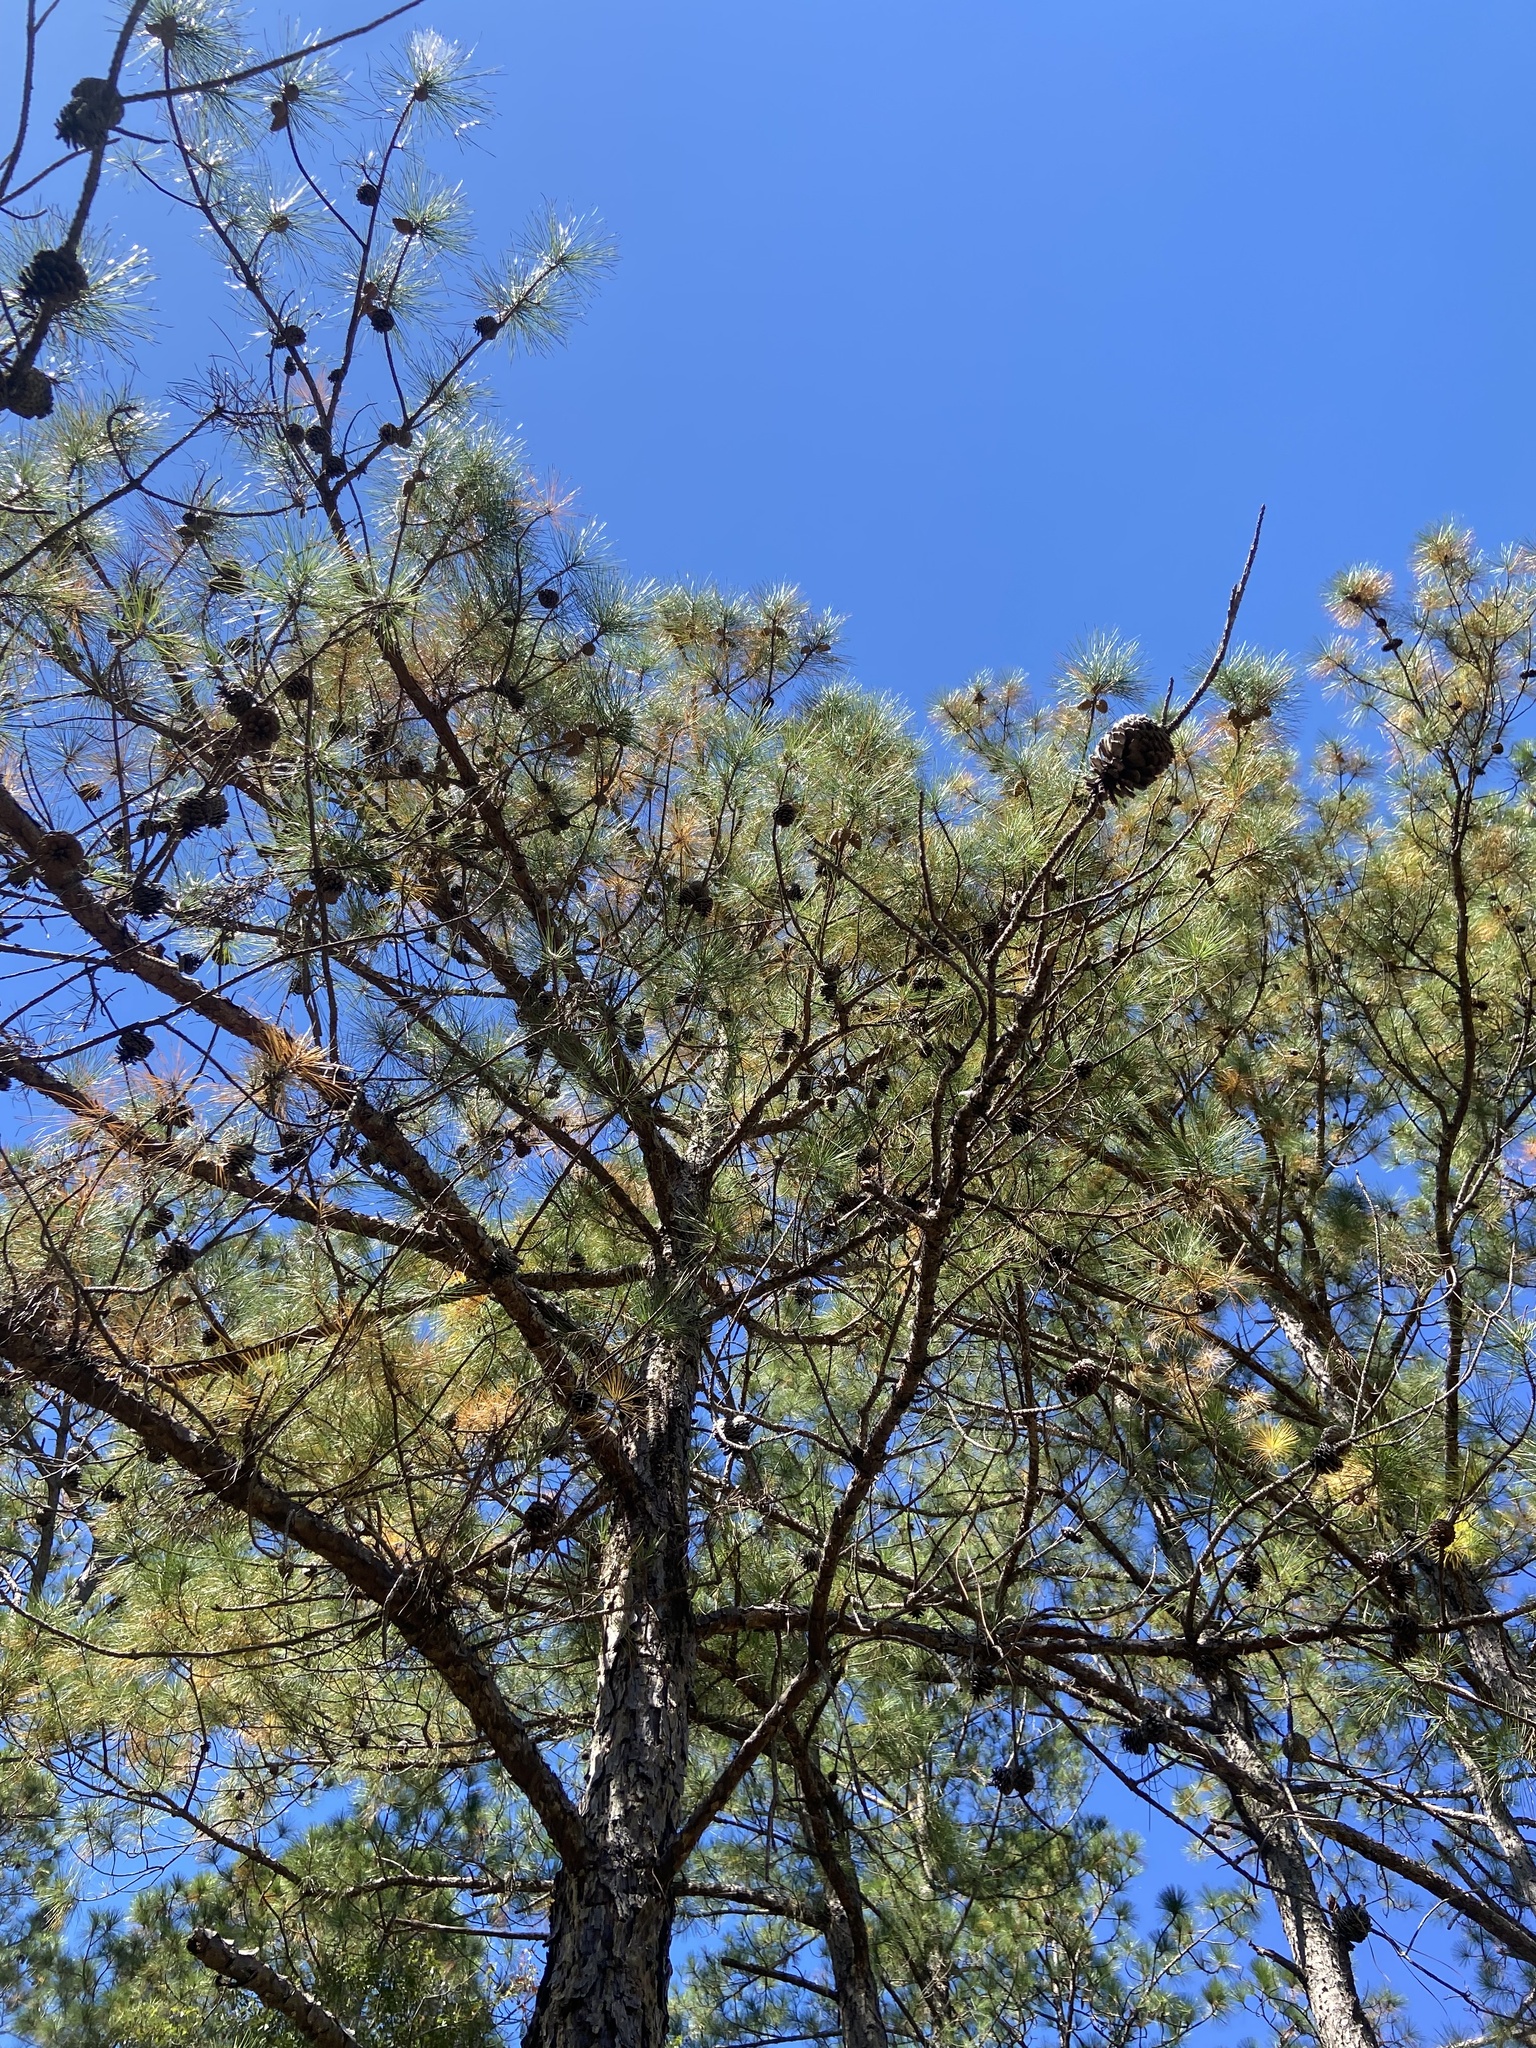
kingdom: Plantae
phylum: Tracheophyta
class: Pinopsida
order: Pinales
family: Pinaceae
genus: Pinus
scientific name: Pinus serotina
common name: Marsh pine
